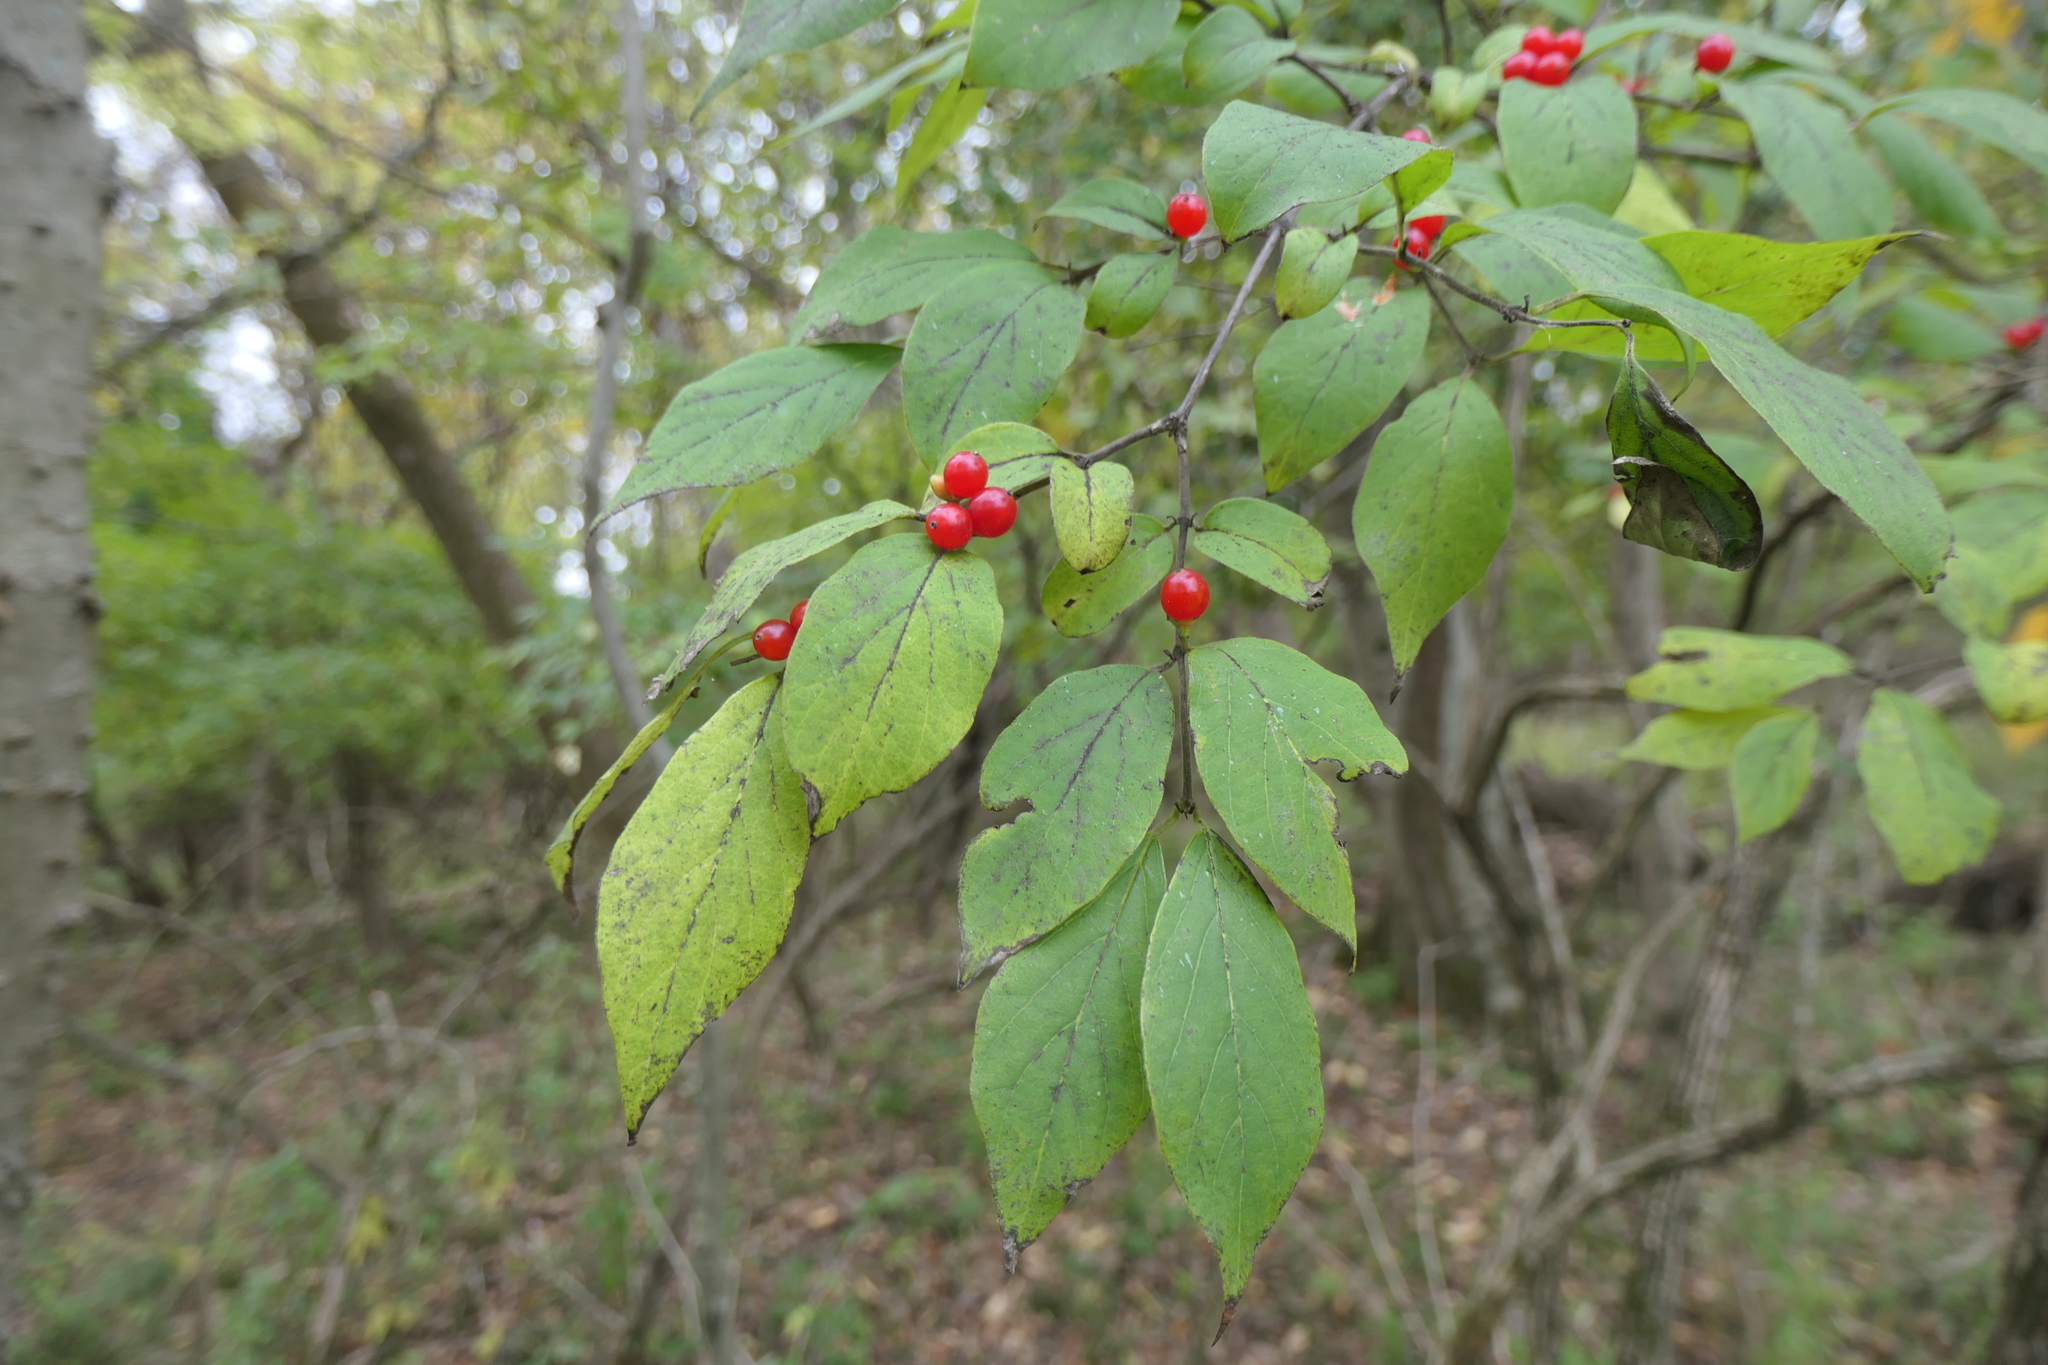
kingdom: Plantae
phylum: Tracheophyta
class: Magnoliopsida
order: Dipsacales
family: Caprifoliaceae
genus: Lonicera
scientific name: Lonicera maackii
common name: Amur honeysuckle
